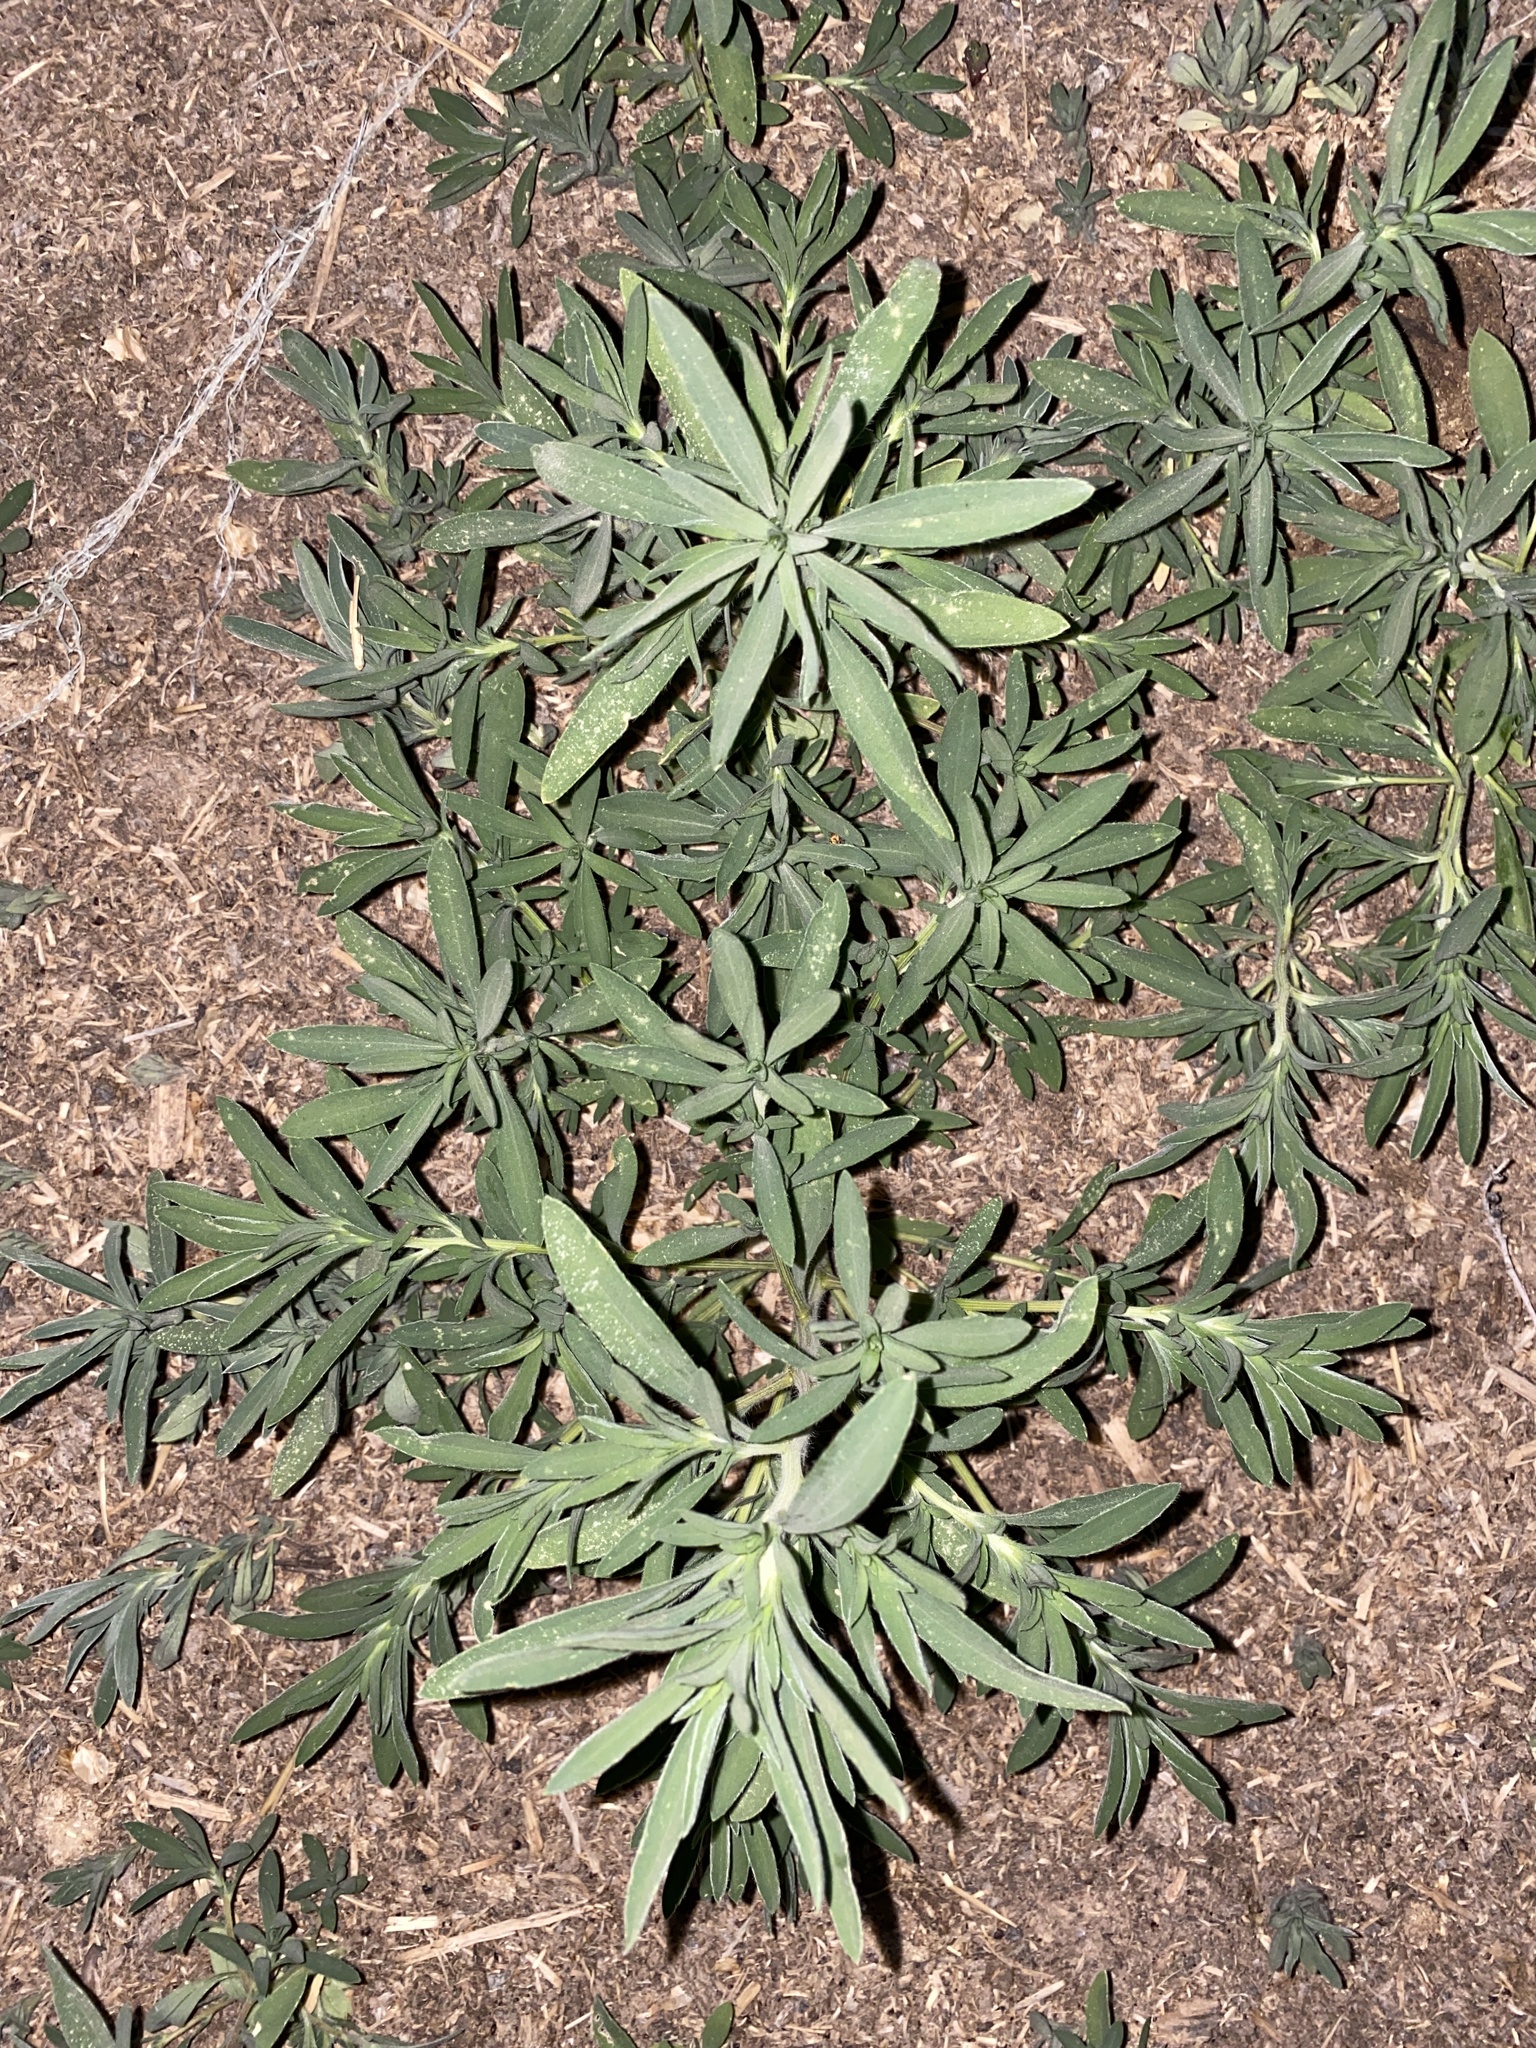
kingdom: Plantae
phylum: Tracheophyta
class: Magnoliopsida
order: Caryophyllales
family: Amaranthaceae
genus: Bassia
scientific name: Bassia scoparia
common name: Belvedere
